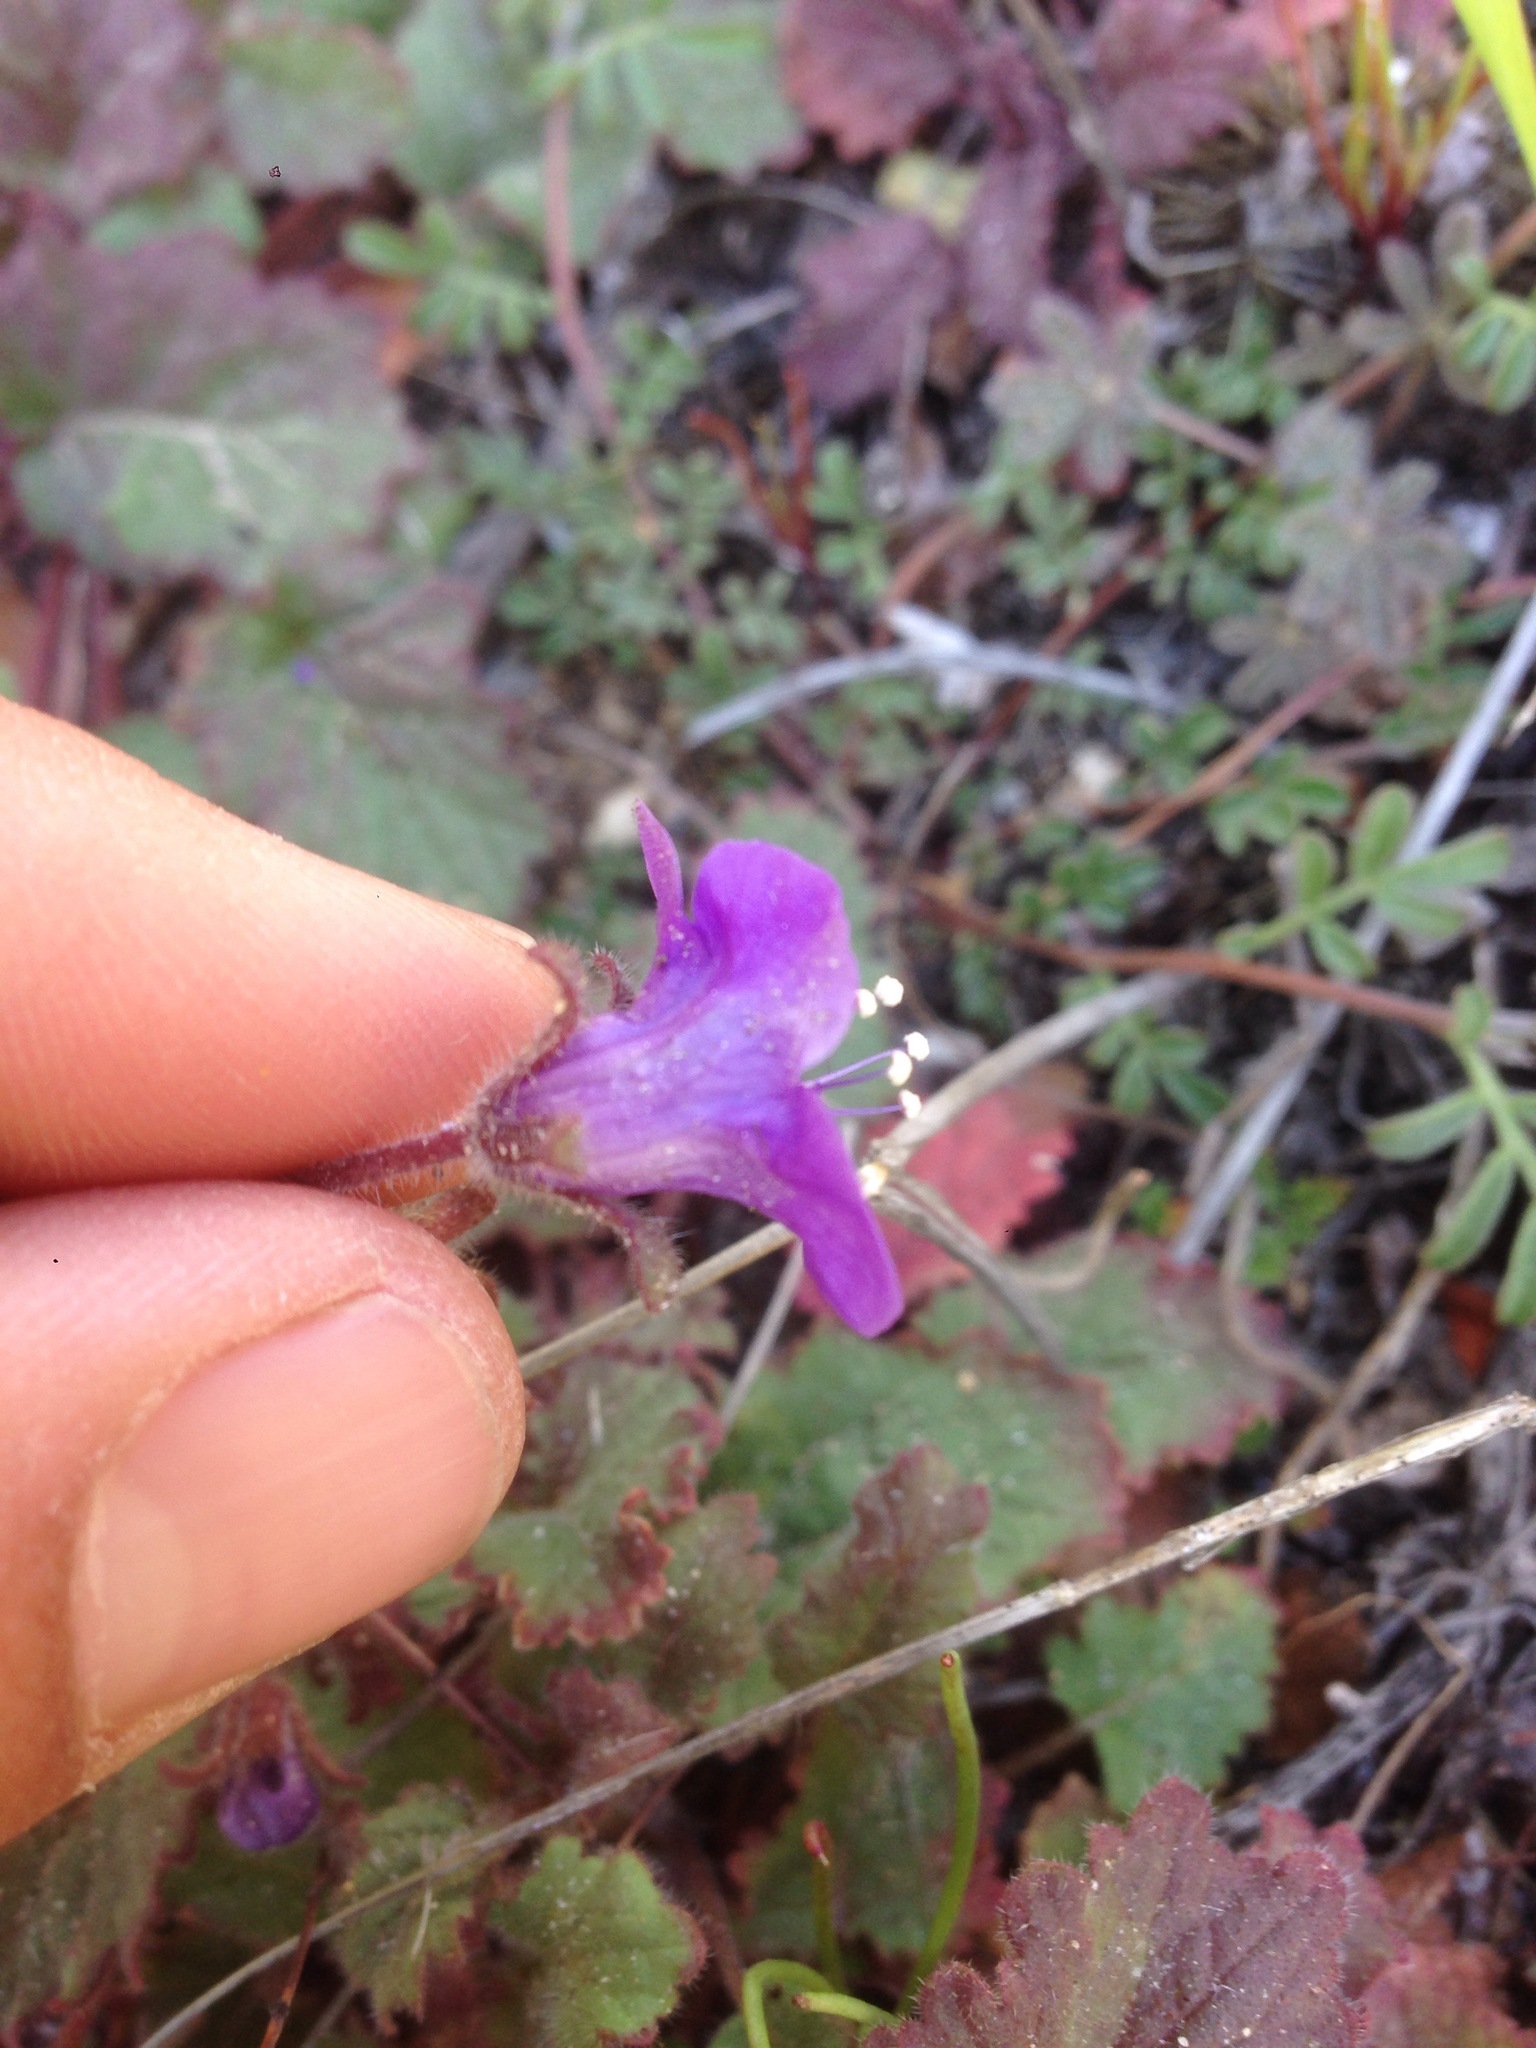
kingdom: Plantae
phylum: Tracheophyta
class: Magnoliopsida
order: Boraginales
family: Hydrophyllaceae
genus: Phacelia
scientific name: Phacelia minor
